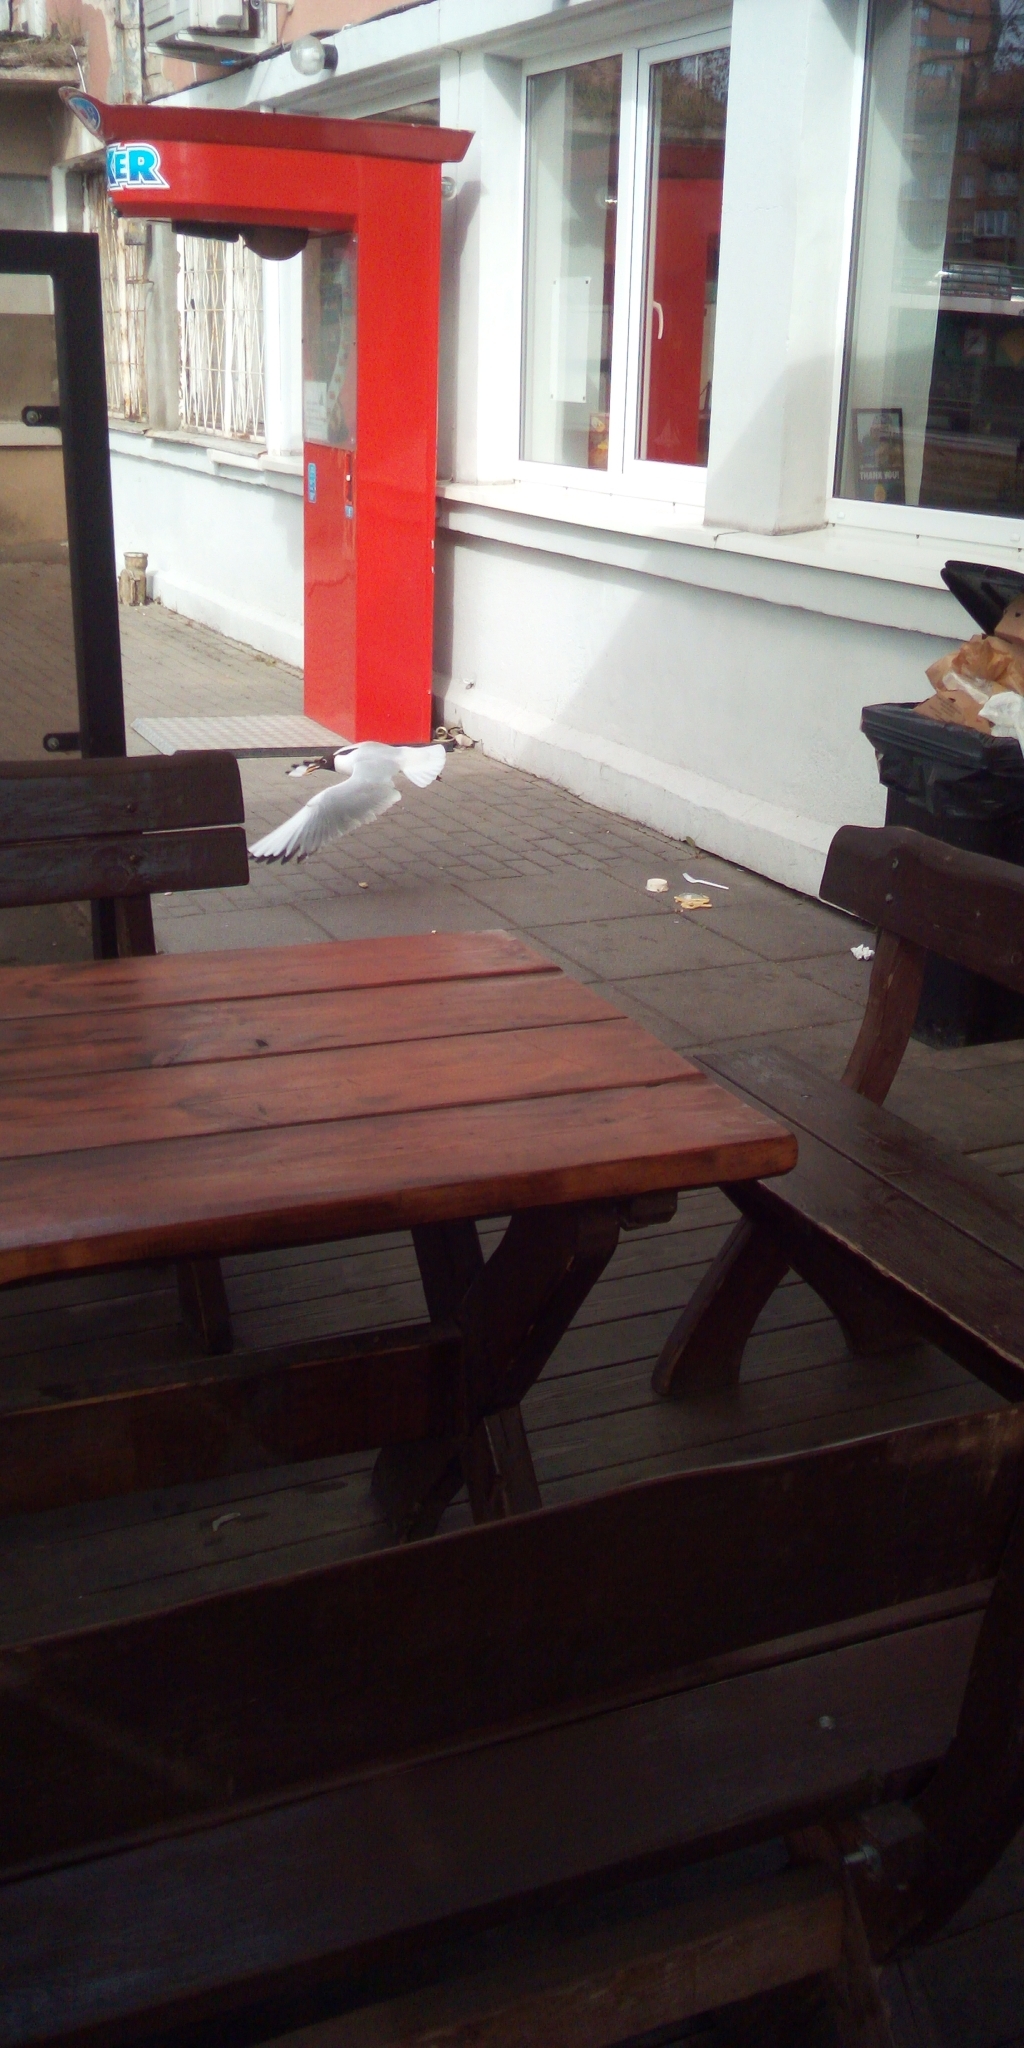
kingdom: Animalia
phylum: Chordata
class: Aves
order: Charadriiformes
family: Laridae
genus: Chroicocephalus
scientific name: Chroicocephalus ridibundus
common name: Black-headed gull
